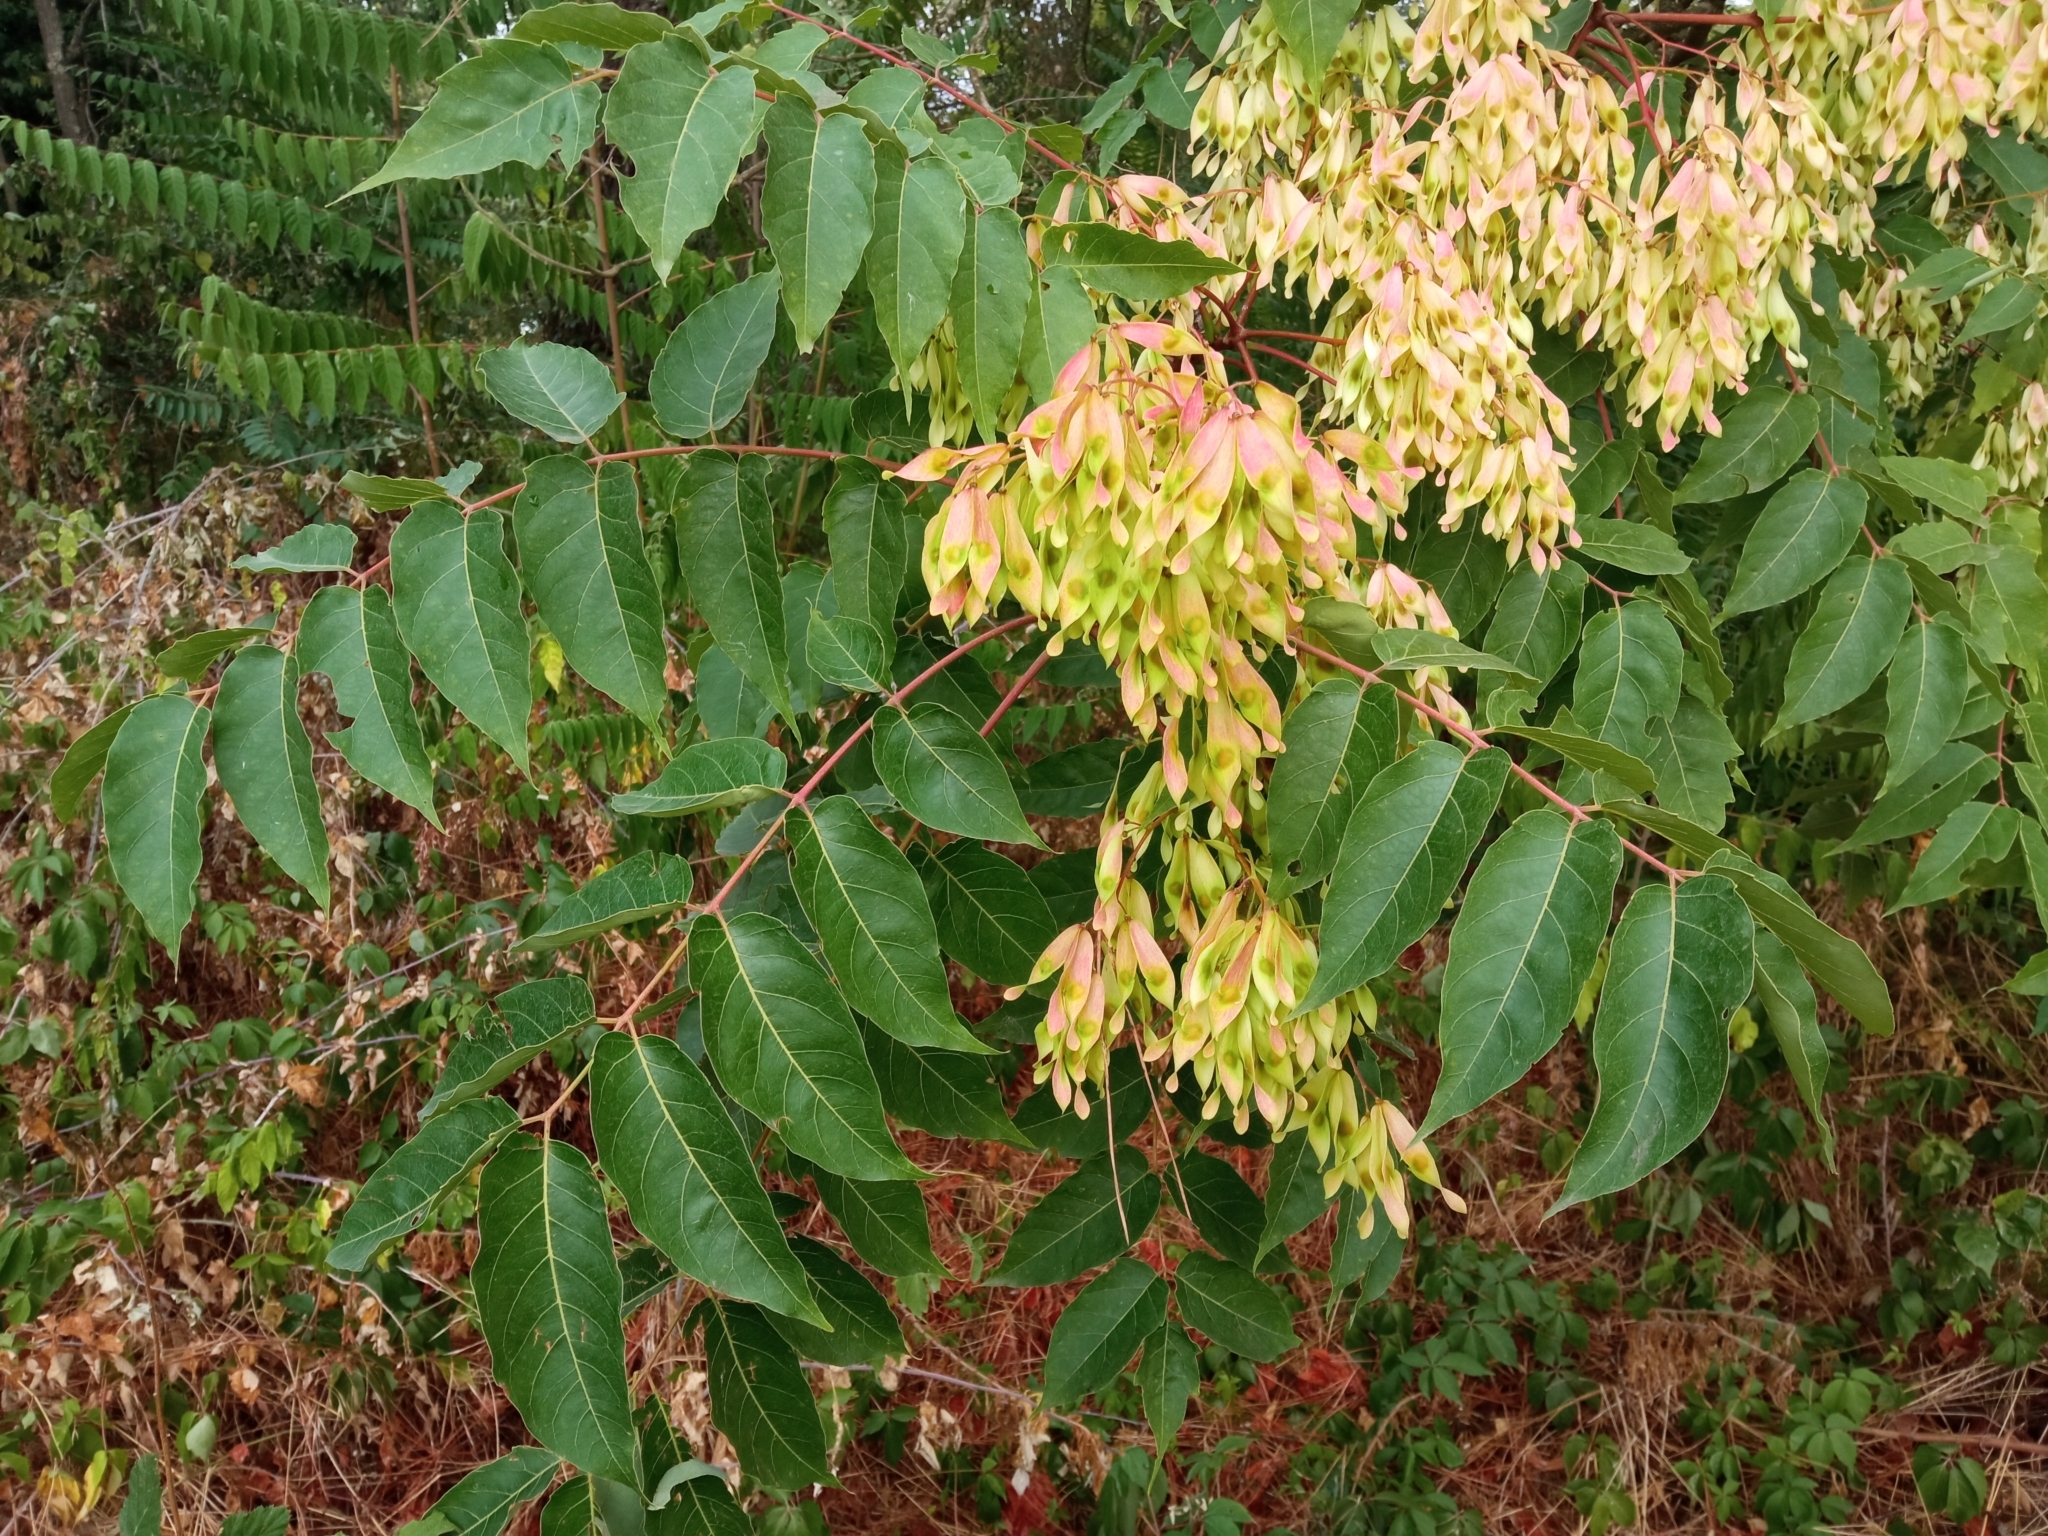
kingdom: Plantae
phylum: Tracheophyta
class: Magnoliopsida
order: Sapindales
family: Simaroubaceae
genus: Ailanthus
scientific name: Ailanthus altissima
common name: Tree-of-heaven
